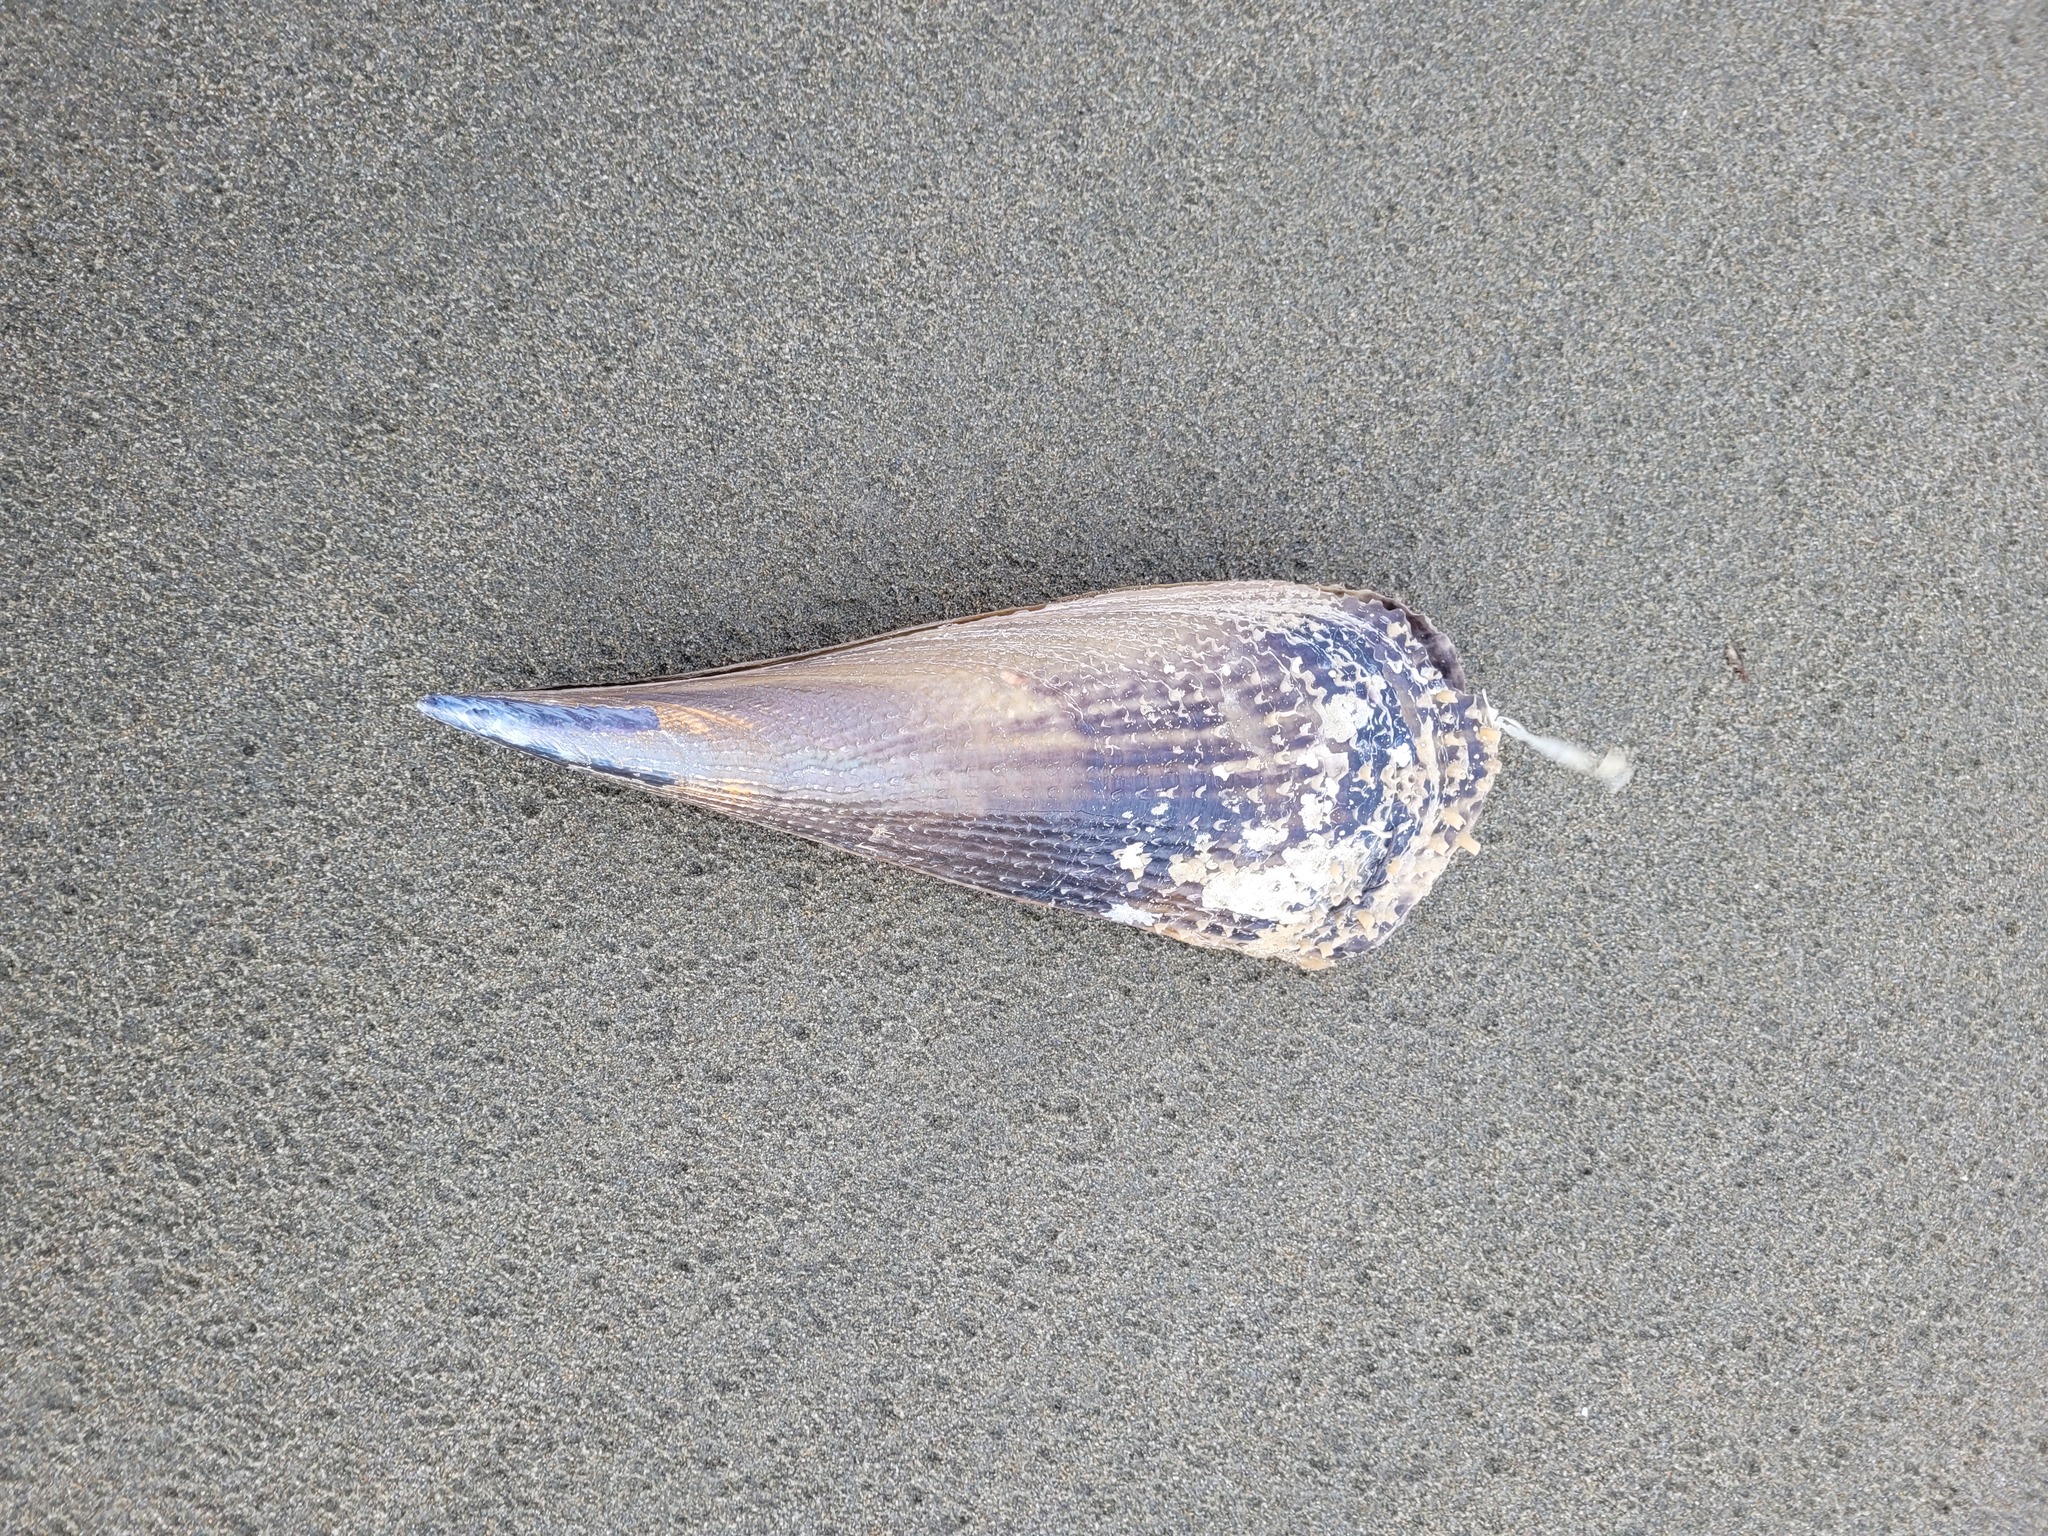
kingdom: Animalia
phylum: Mollusca
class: Bivalvia
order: Ostreida
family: Pinnidae
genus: Atrina
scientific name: Atrina zelandica
